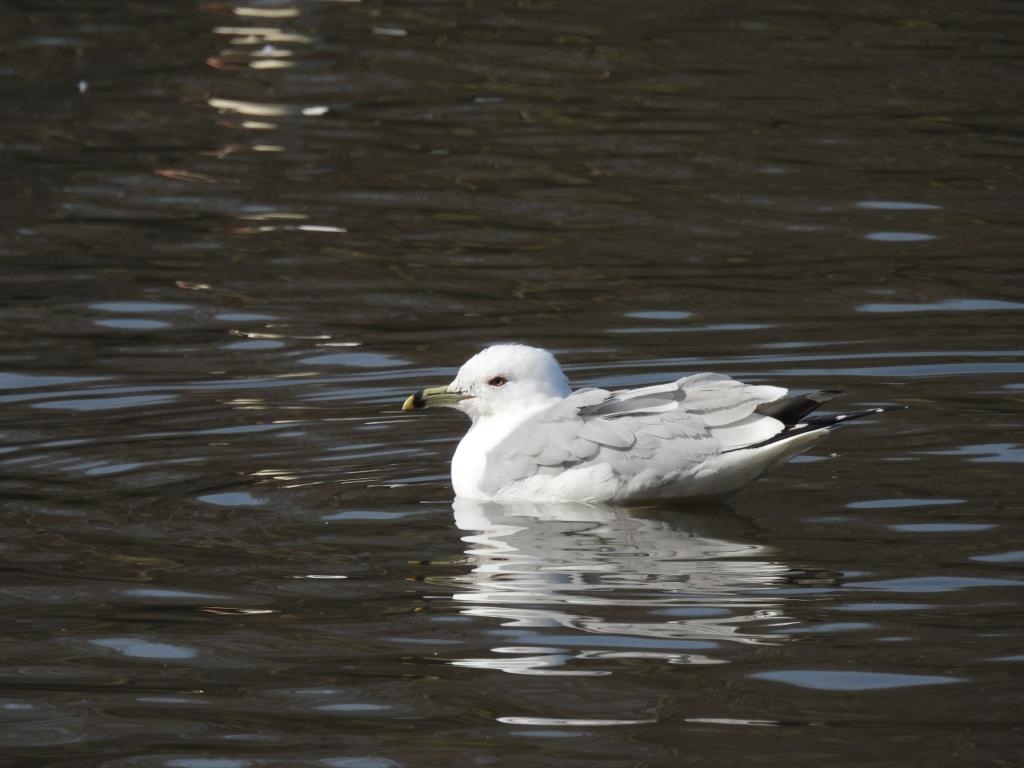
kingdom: Animalia
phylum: Chordata
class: Aves
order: Charadriiformes
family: Laridae
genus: Larus
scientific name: Larus delawarensis
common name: Ring-billed gull
